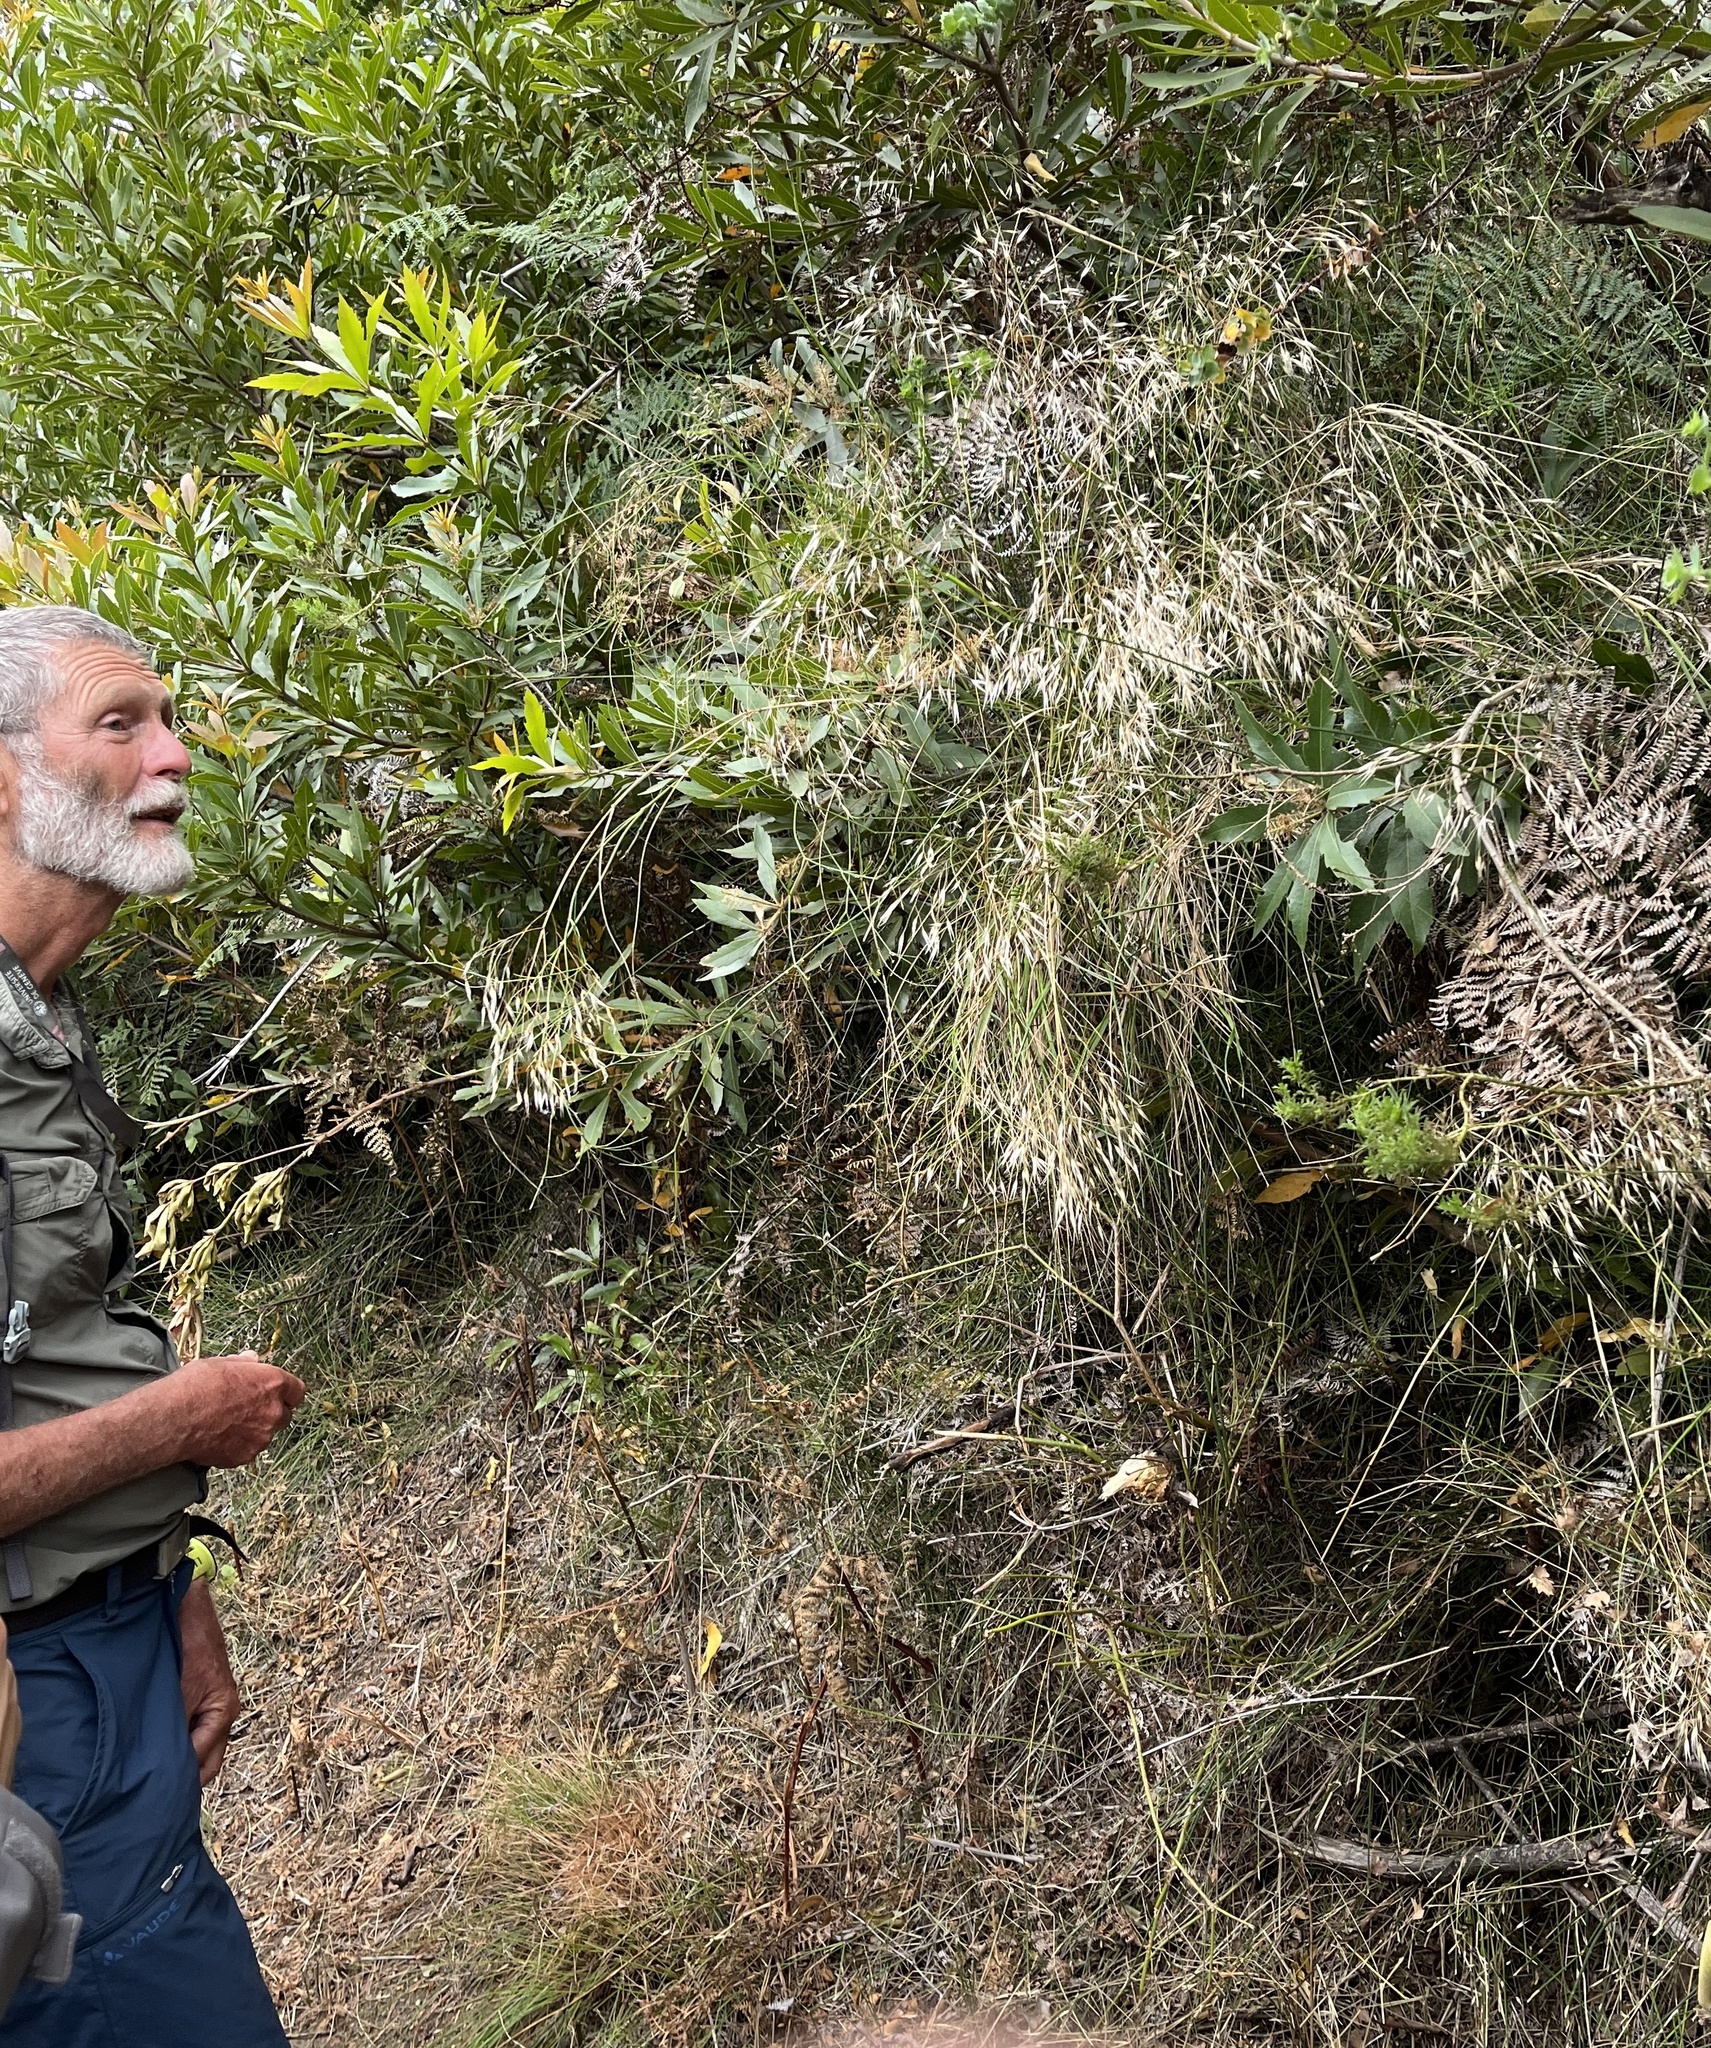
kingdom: Plantae
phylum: Tracheophyta
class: Liliopsida
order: Poales
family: Poaceae
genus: Pentameris
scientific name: Pentameris thuarii
